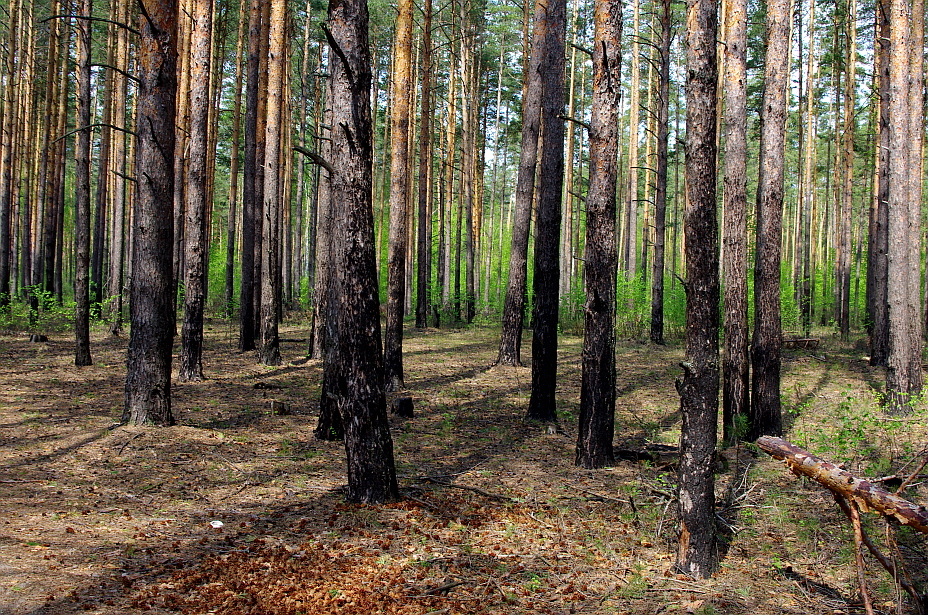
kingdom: Plantae
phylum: Tracheophyta
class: Pinopsida
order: Pinales
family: Pinaceae
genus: Pinus
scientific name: Pinus sylvestris
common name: Scots pine
